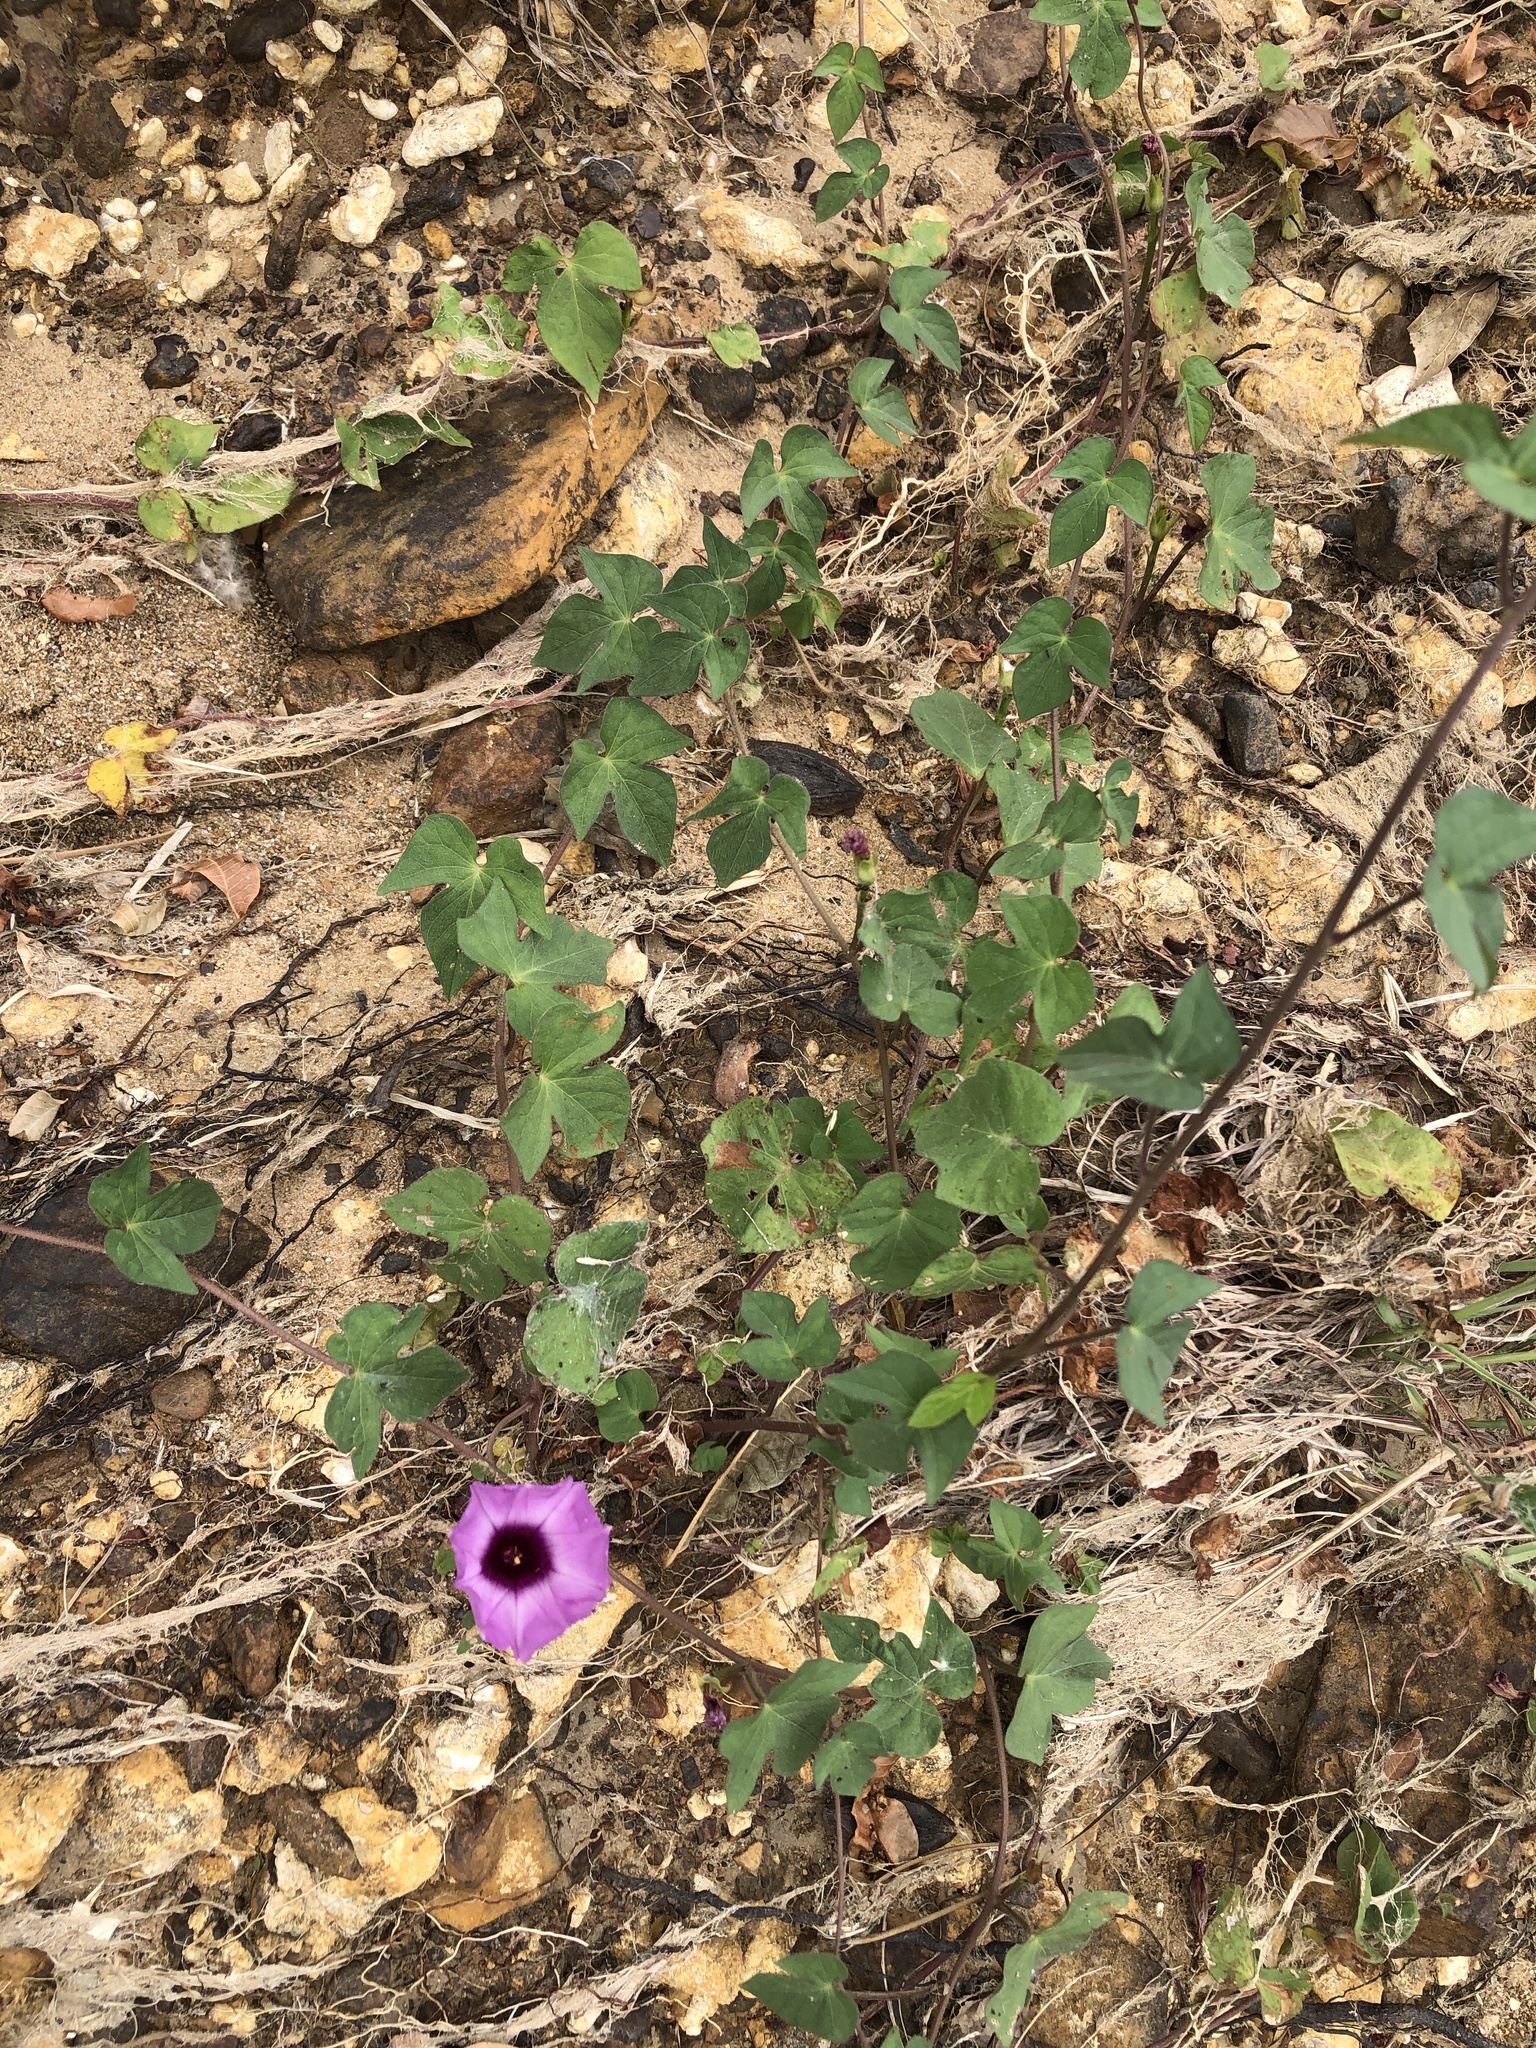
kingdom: Plantae
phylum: Tracheophyta
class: Magnoliopsida
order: Solanales
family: Convolvulaceae
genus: Ipomoea
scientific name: Ipomoea cordatotriloba
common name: Cotton morning glory
